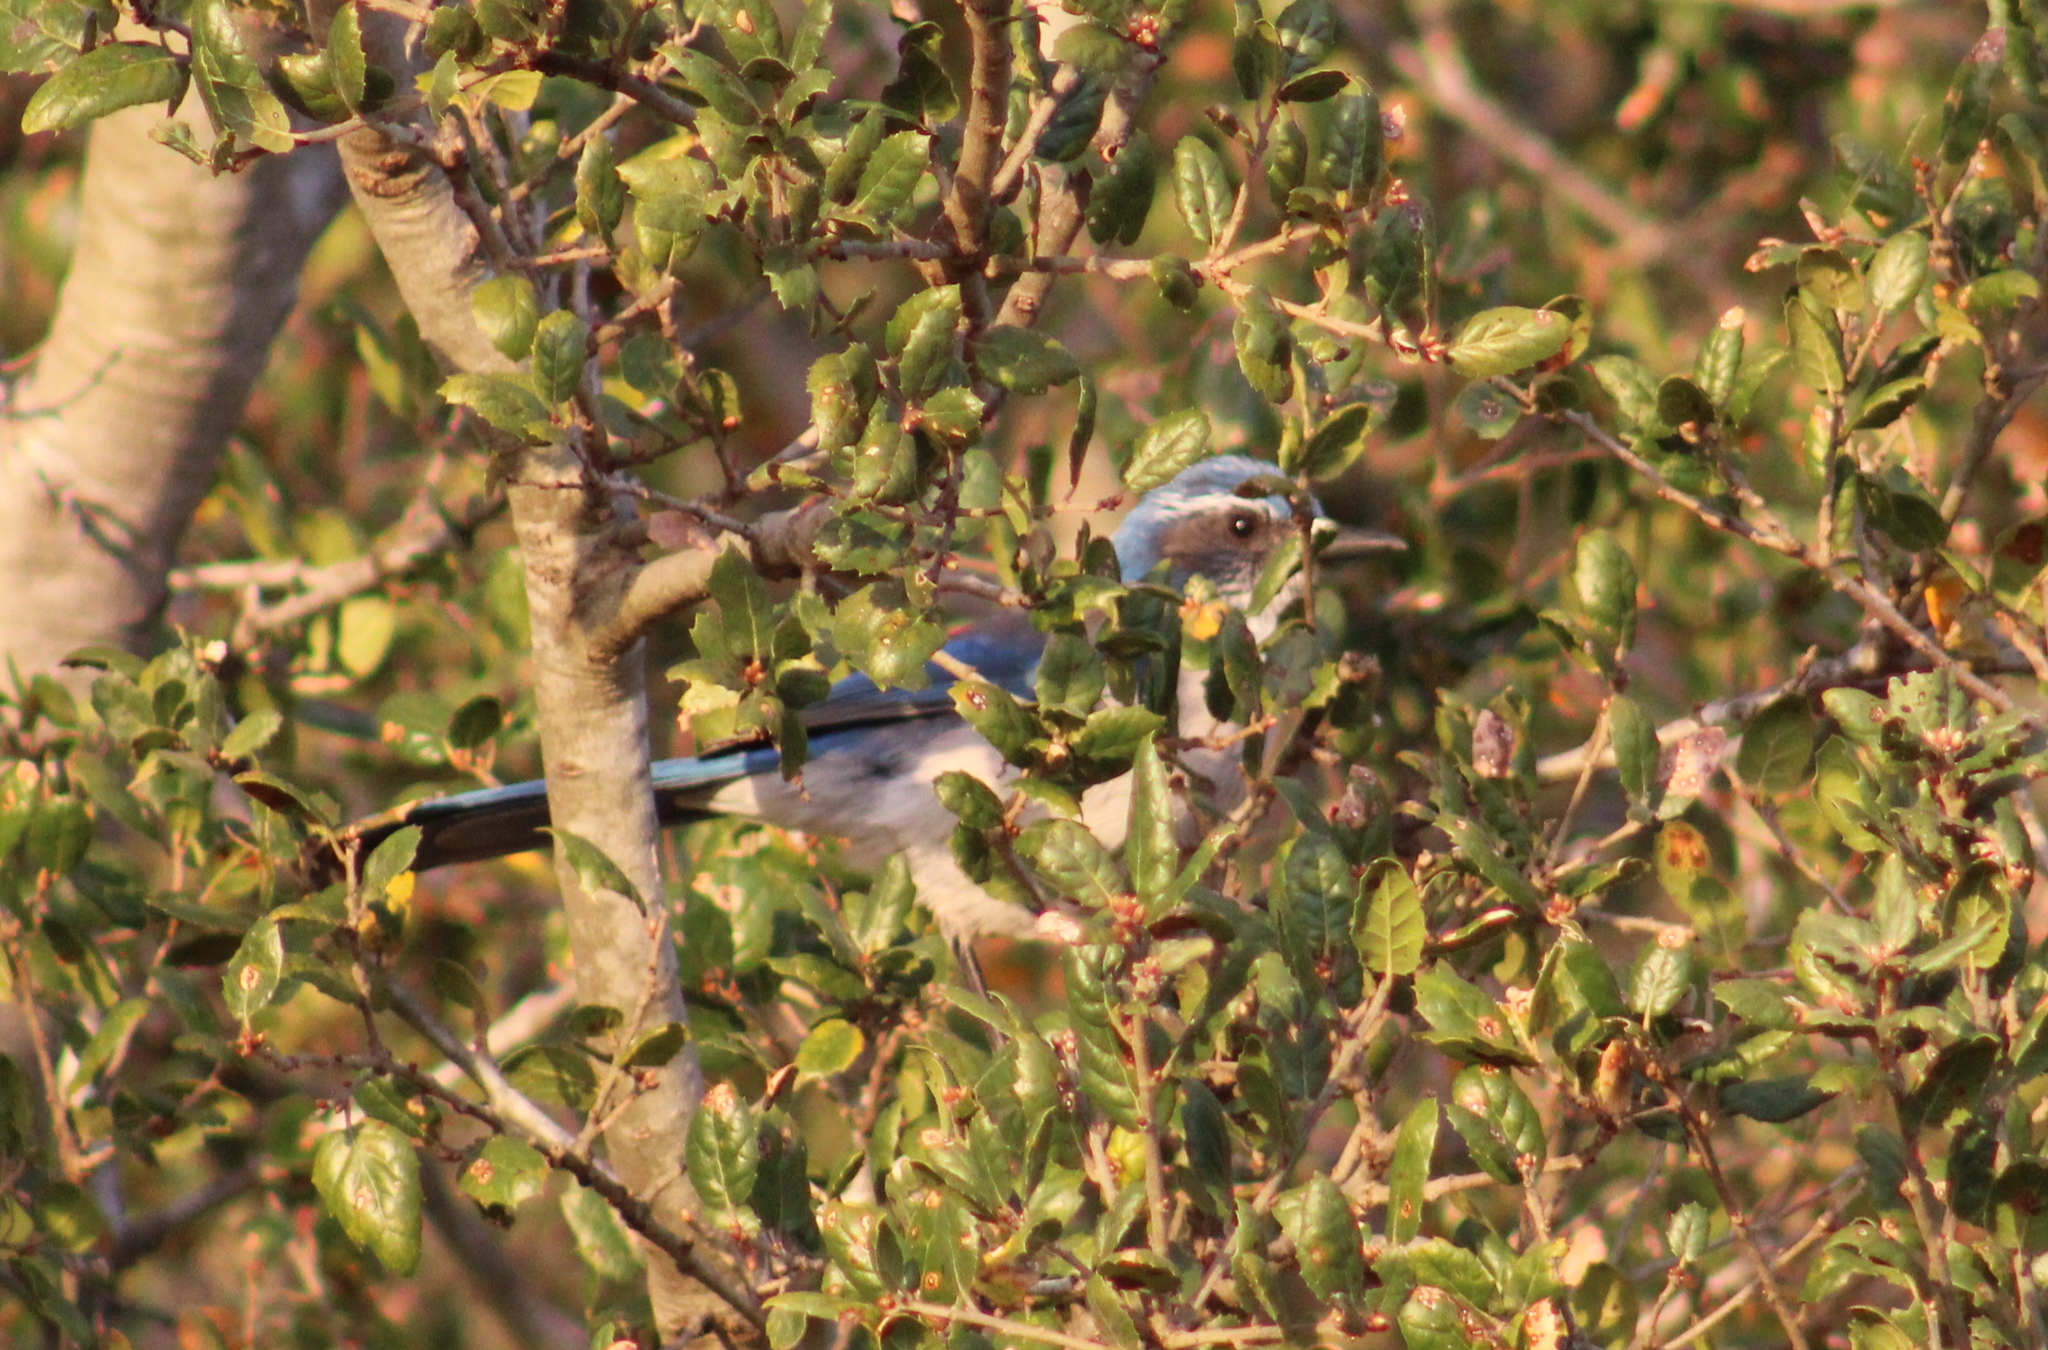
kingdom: Animalia
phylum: Chordata
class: Aves
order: Passeriformes
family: Corvidae
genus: Aphelocoma
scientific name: Aphelocoma californica
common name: California scrub-jay
